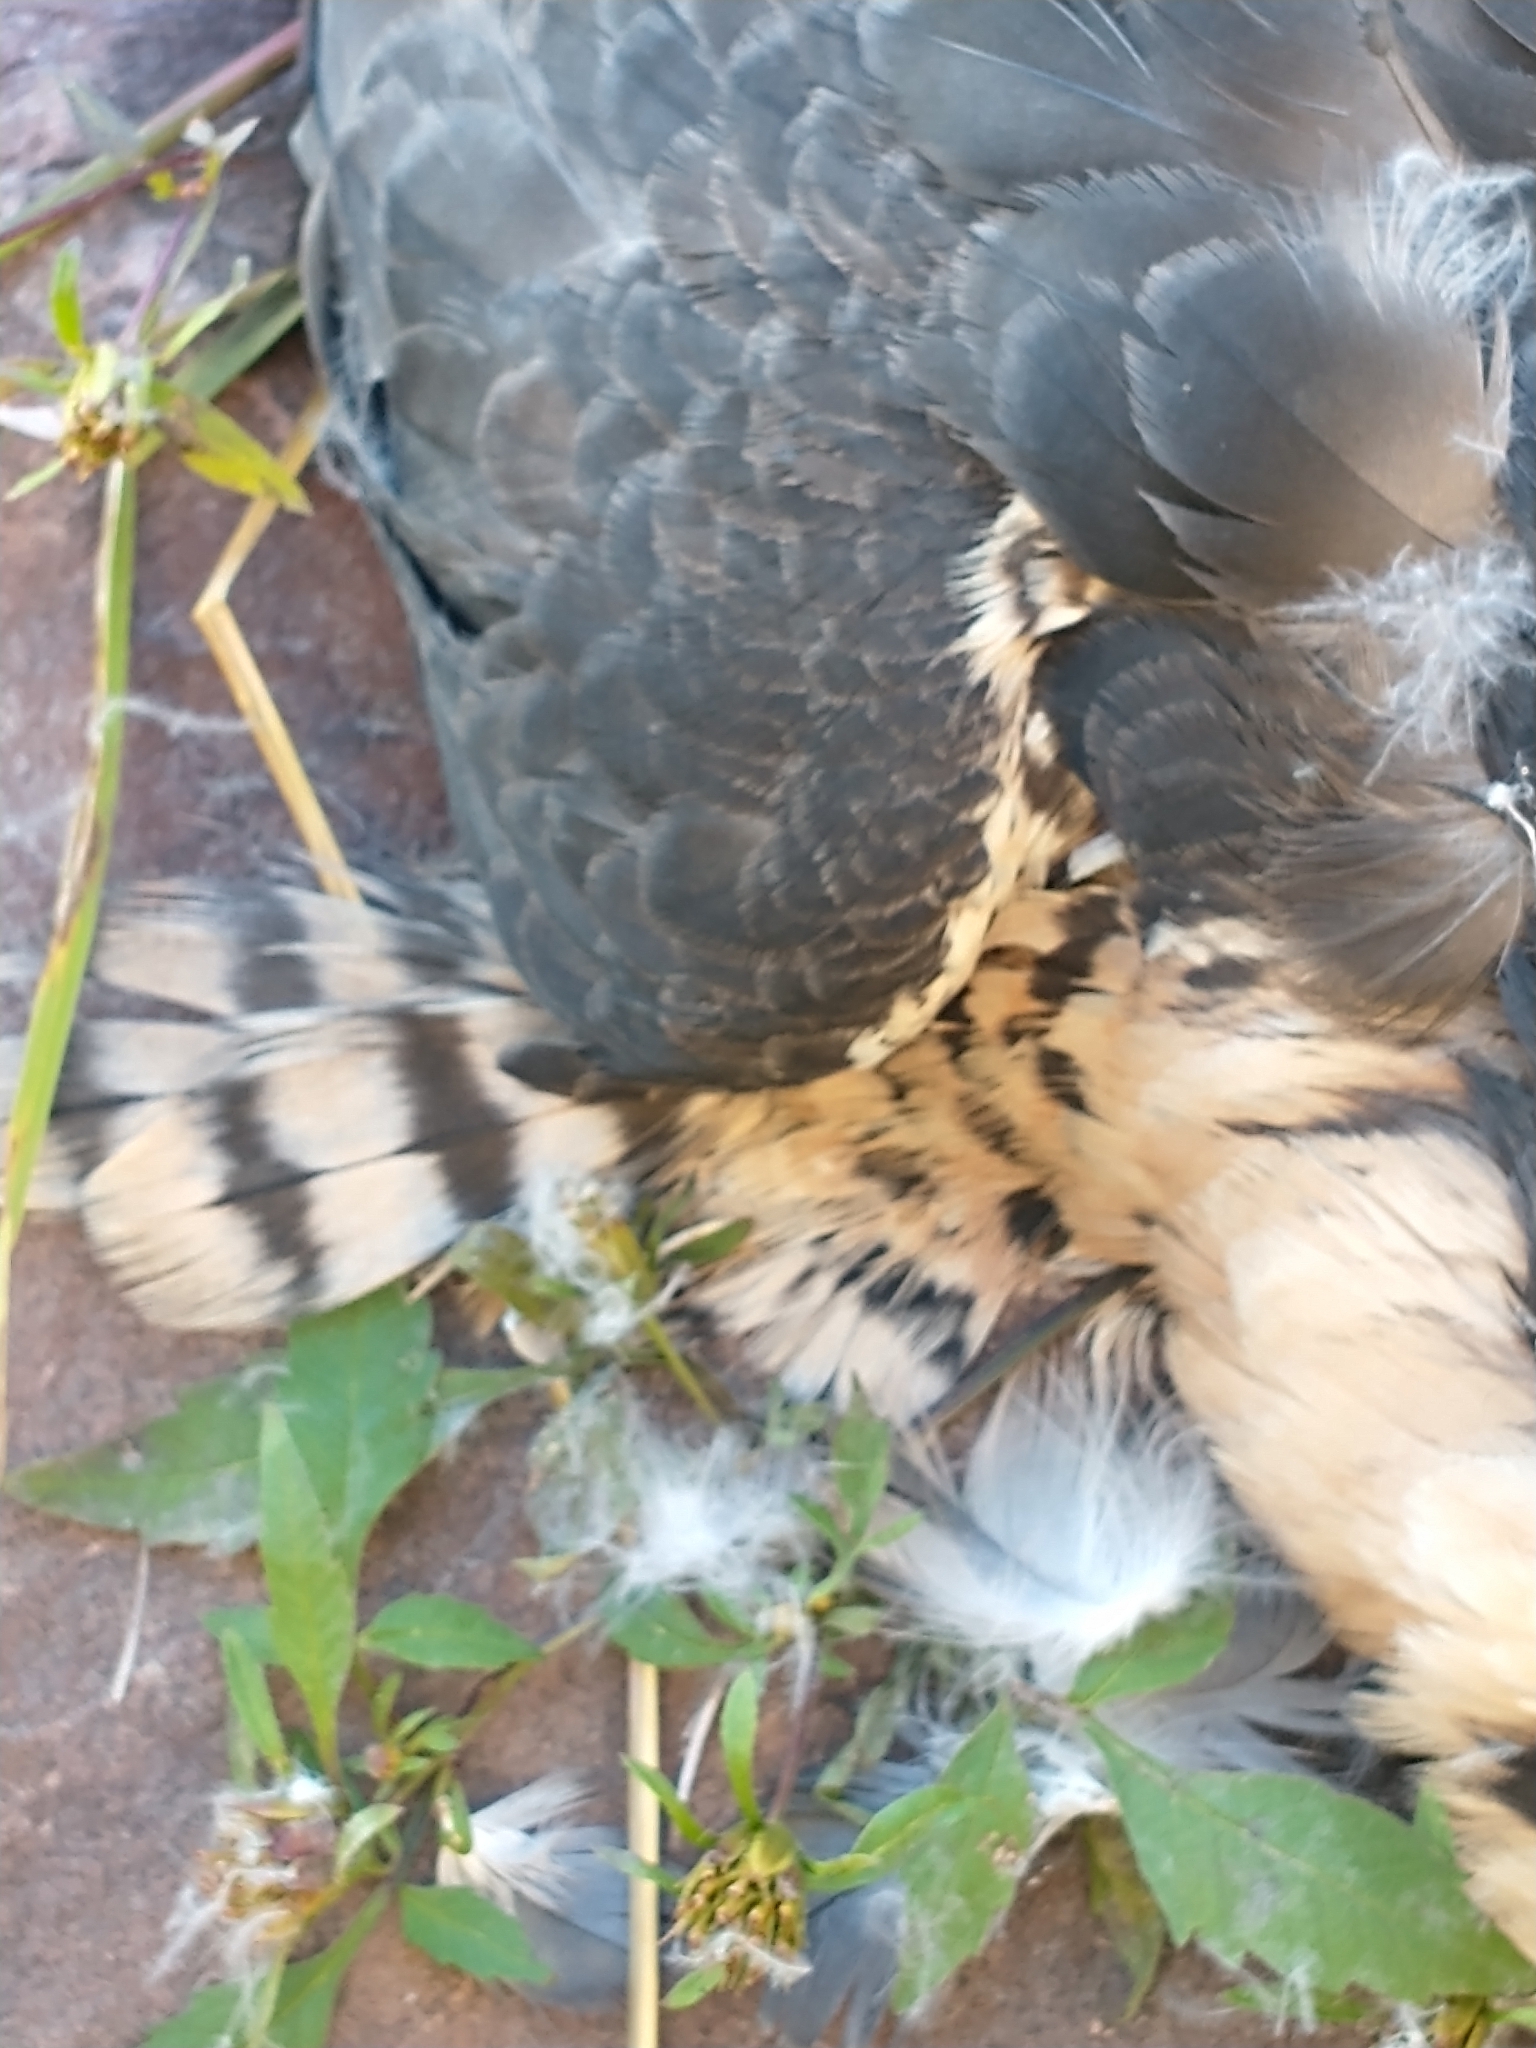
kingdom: Animalia
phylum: Chordata
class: Aves
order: Falconiformes
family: Falconidae
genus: Falco
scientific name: Falco peregrinus
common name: Peregrine falcon
